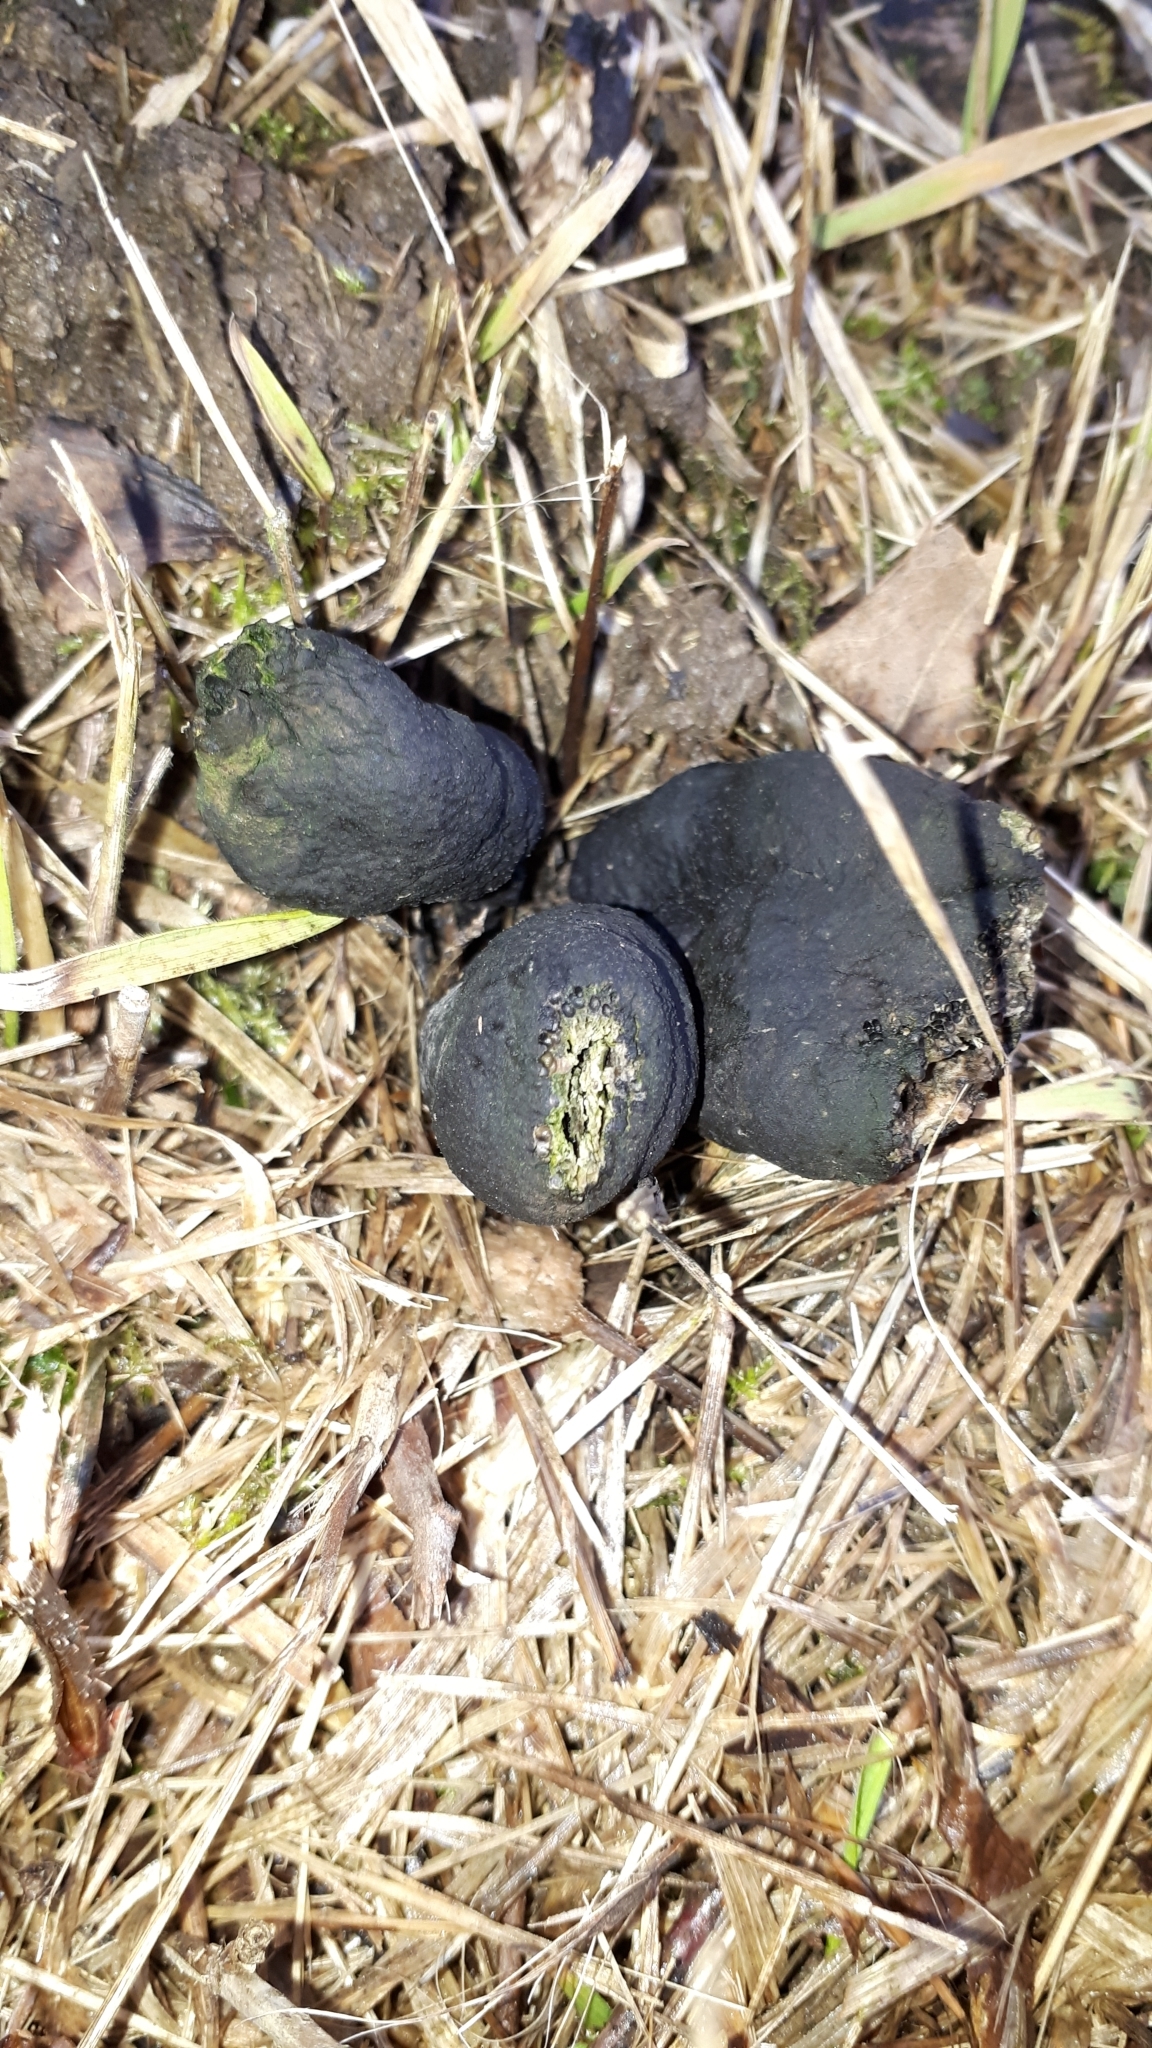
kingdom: Fungi
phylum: Ascomycota
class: Sordariomycetes
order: Xylariales
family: Xylariaceae
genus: Xylaria
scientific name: Xylaria polymorpha
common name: Dead man's fingers
